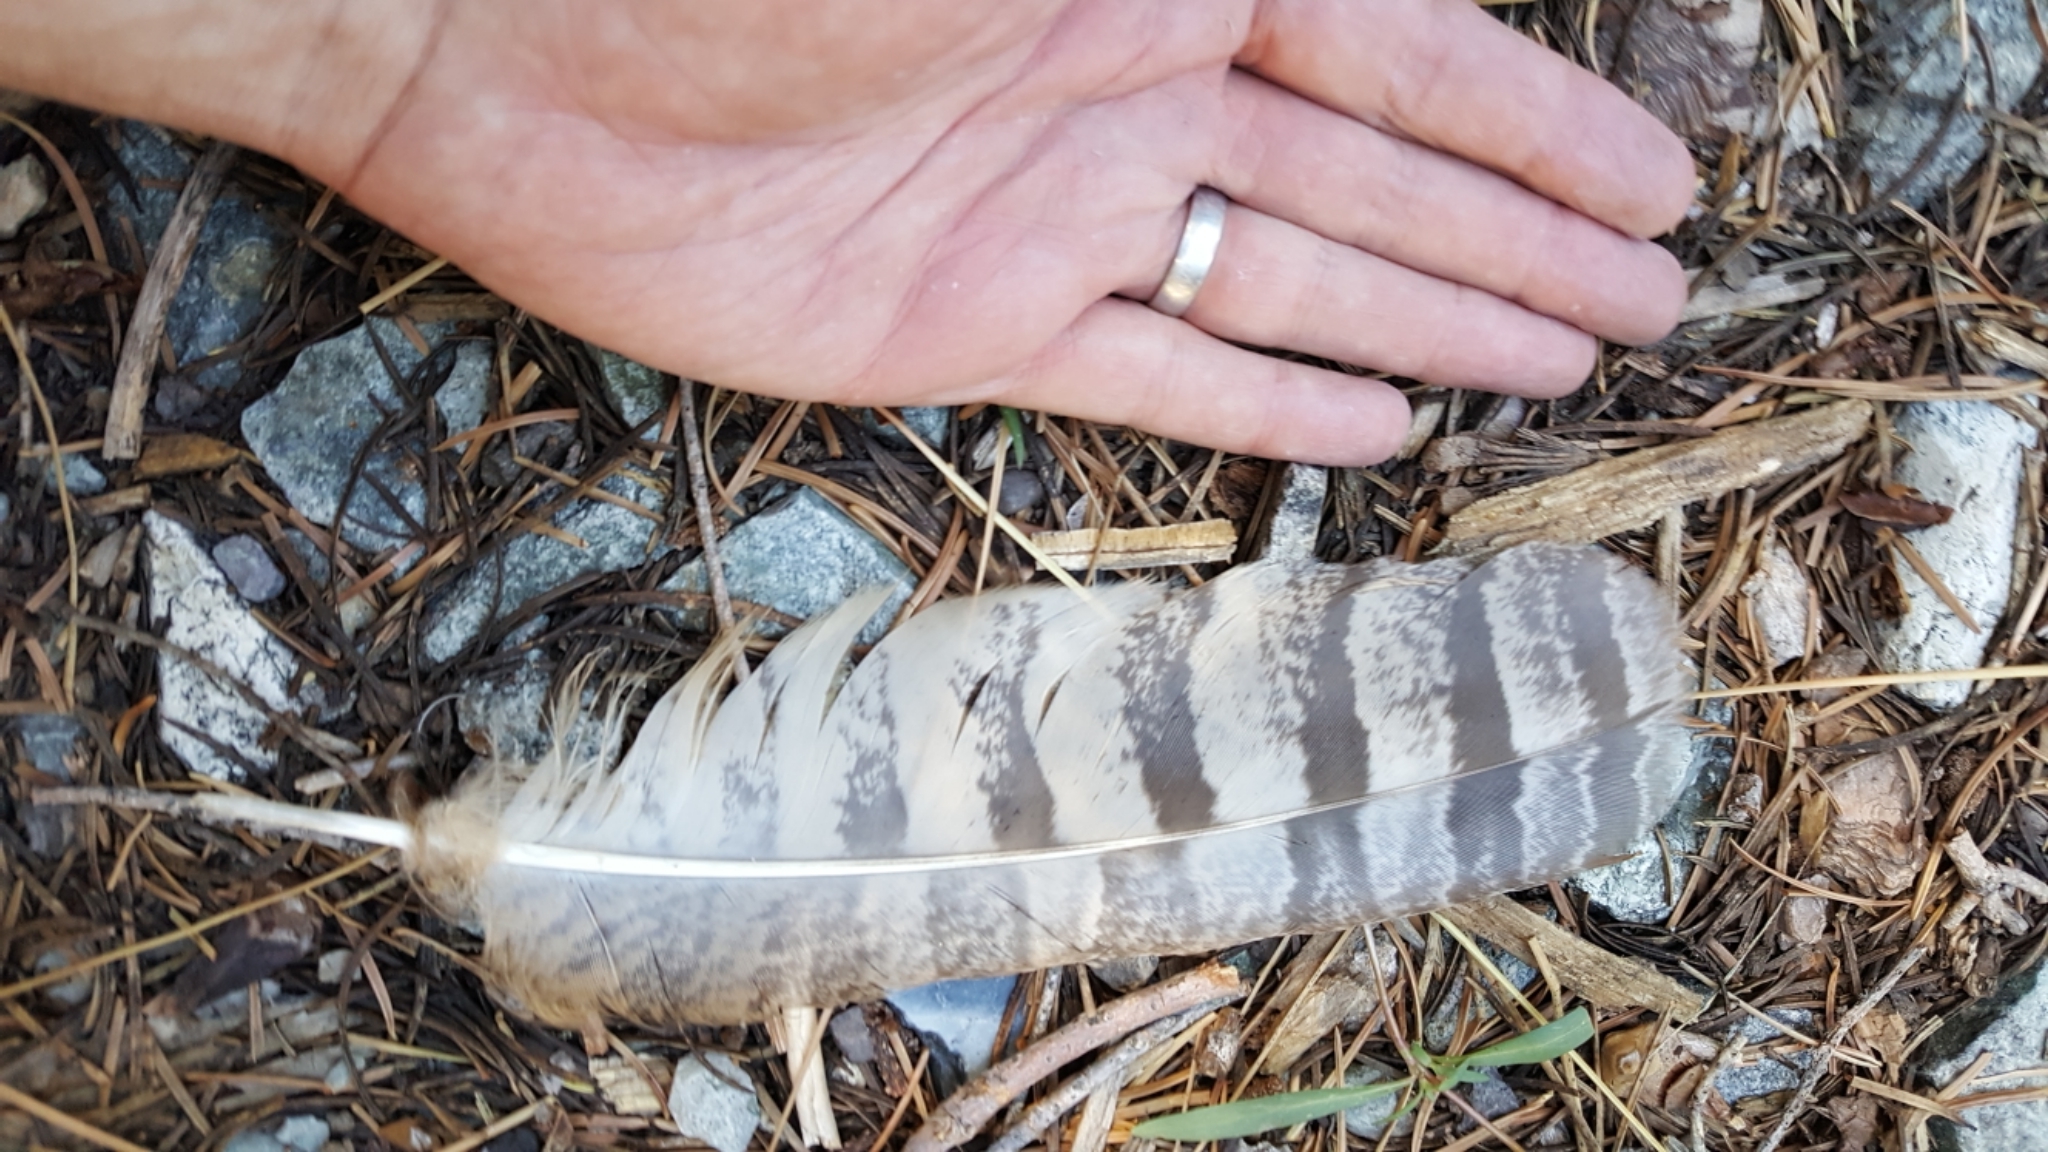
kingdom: Animalia
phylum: Chordata
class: Aves
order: Strigiformes
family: Strigidae
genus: Bubo
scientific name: Bubo virginianus
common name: Great horned owl
